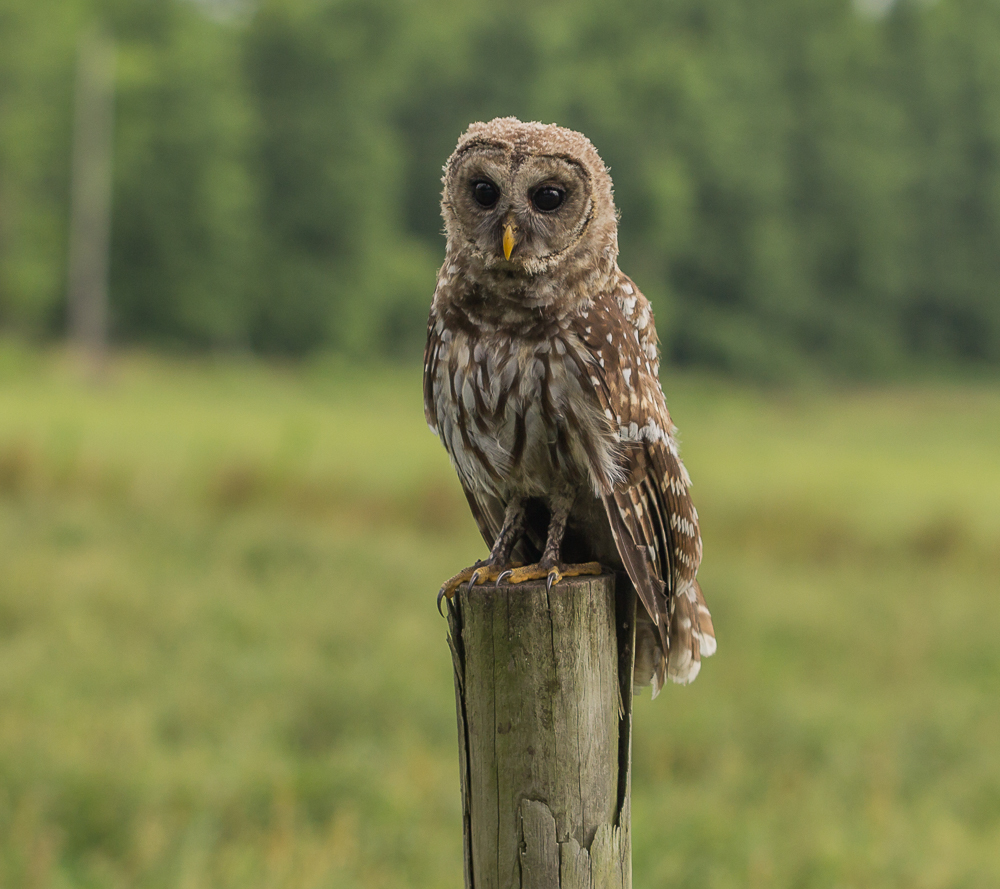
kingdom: Animalia
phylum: Chordata
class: Aves
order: Strigiformes
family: Strigidae
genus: Strix
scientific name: Strix varia
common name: Barred owl
